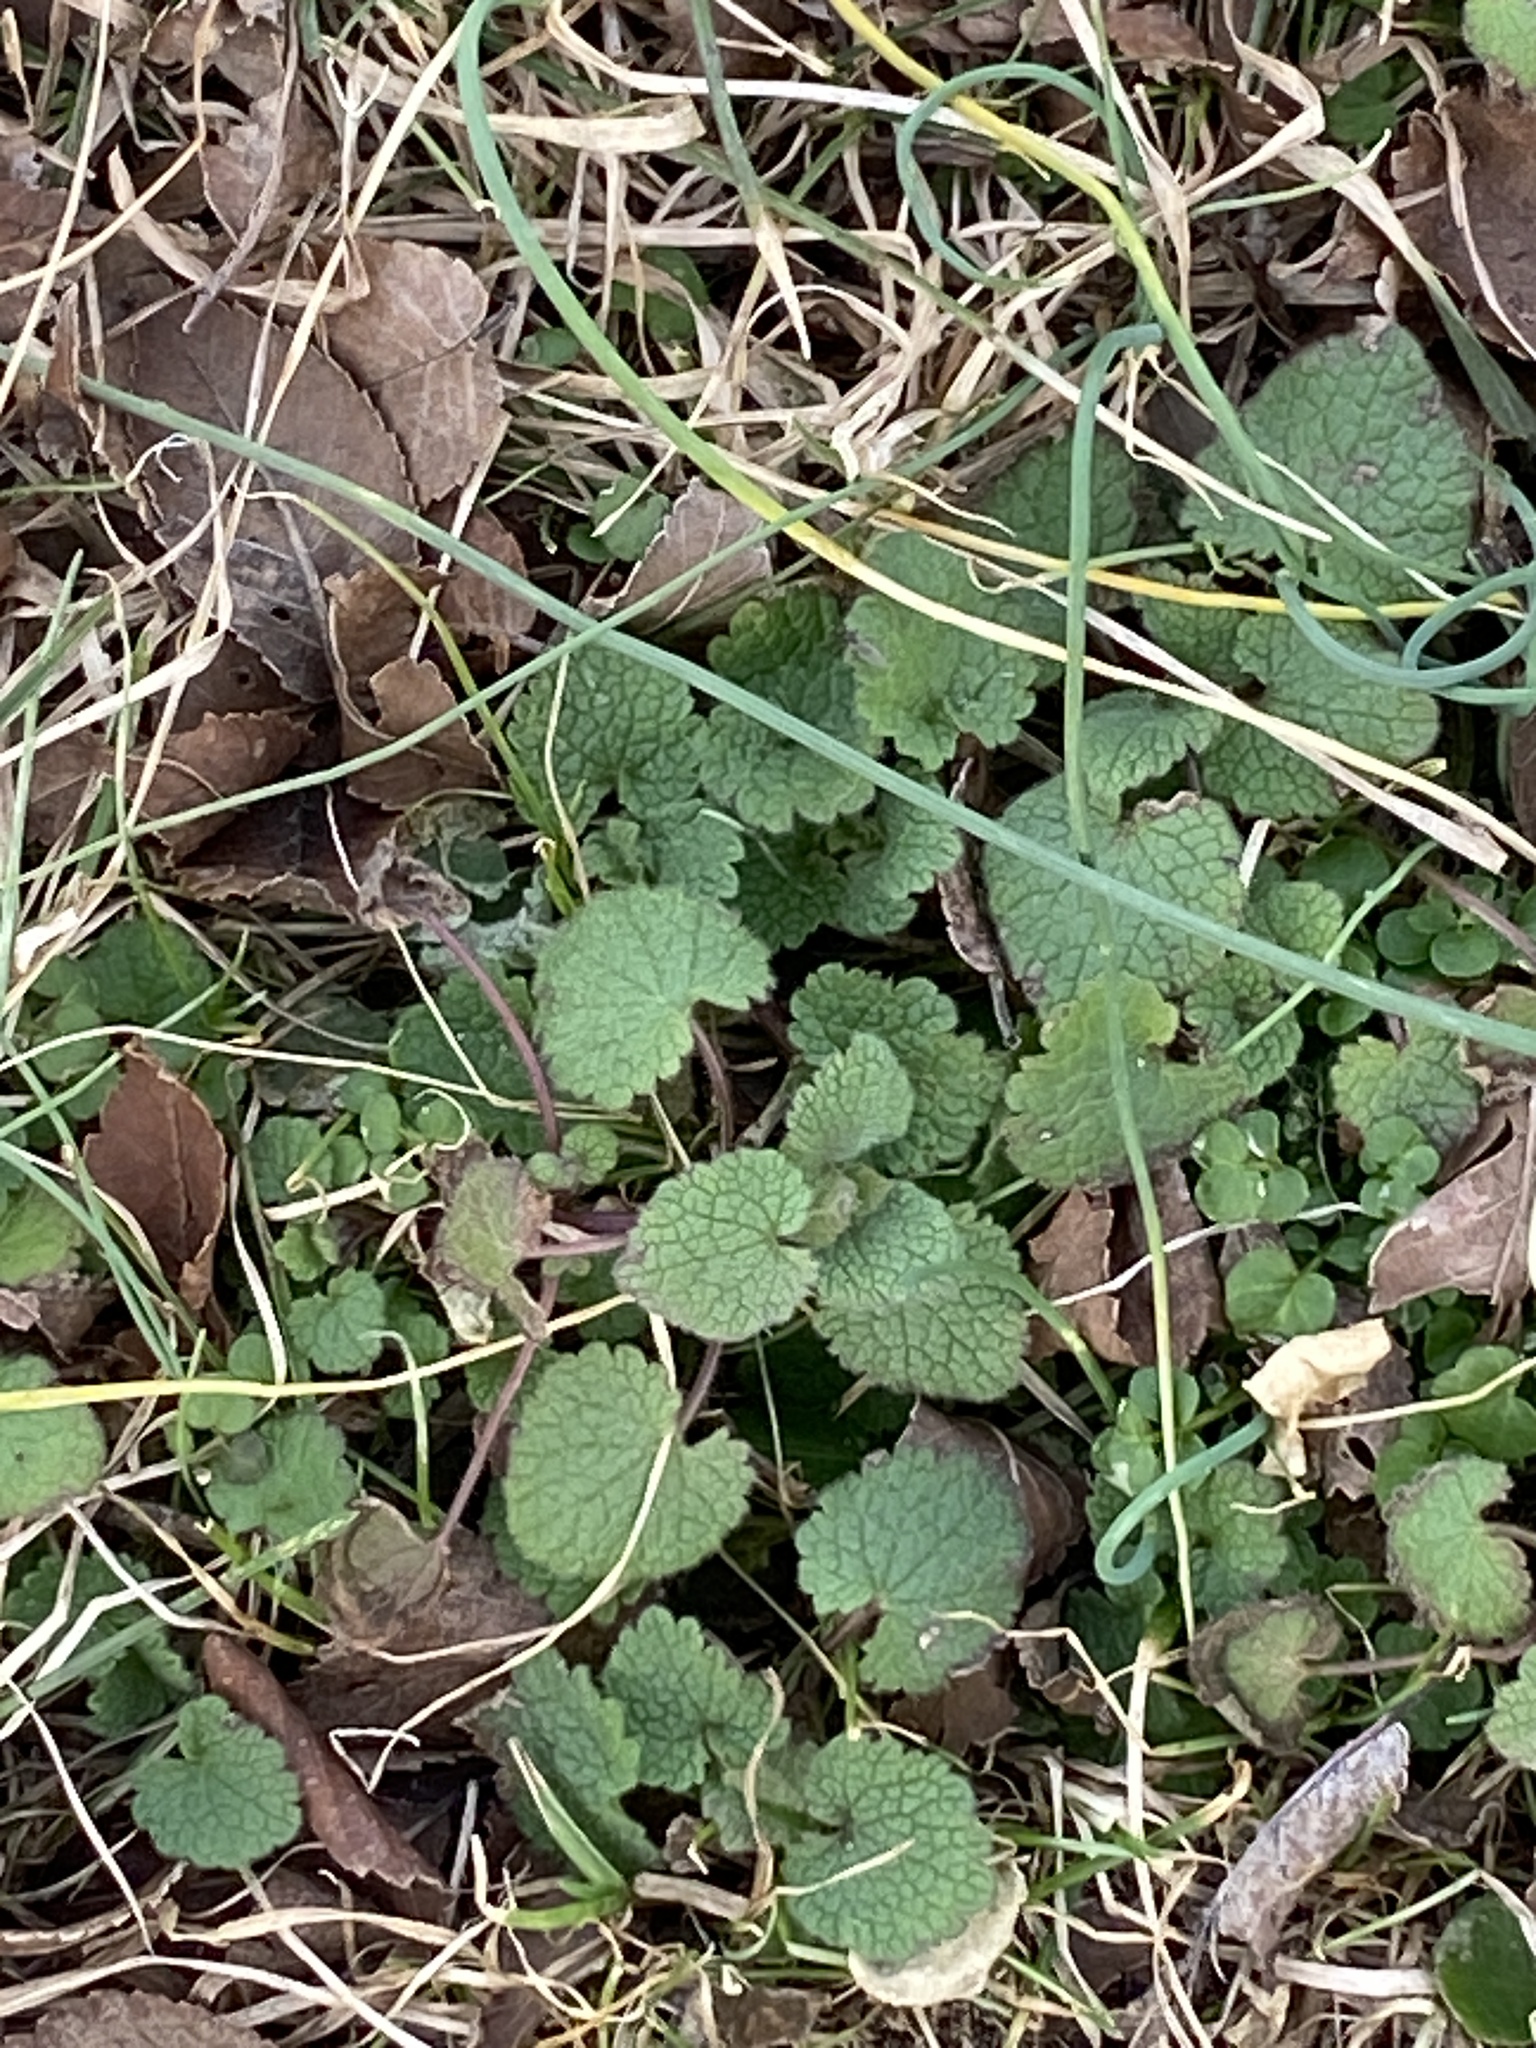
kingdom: Plantae
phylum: Tracheophyta
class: Magnoliopsida
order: Lamiales
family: Lamiaceae
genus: Lamium
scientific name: Lamium purpureum
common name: Red dead-nettle
